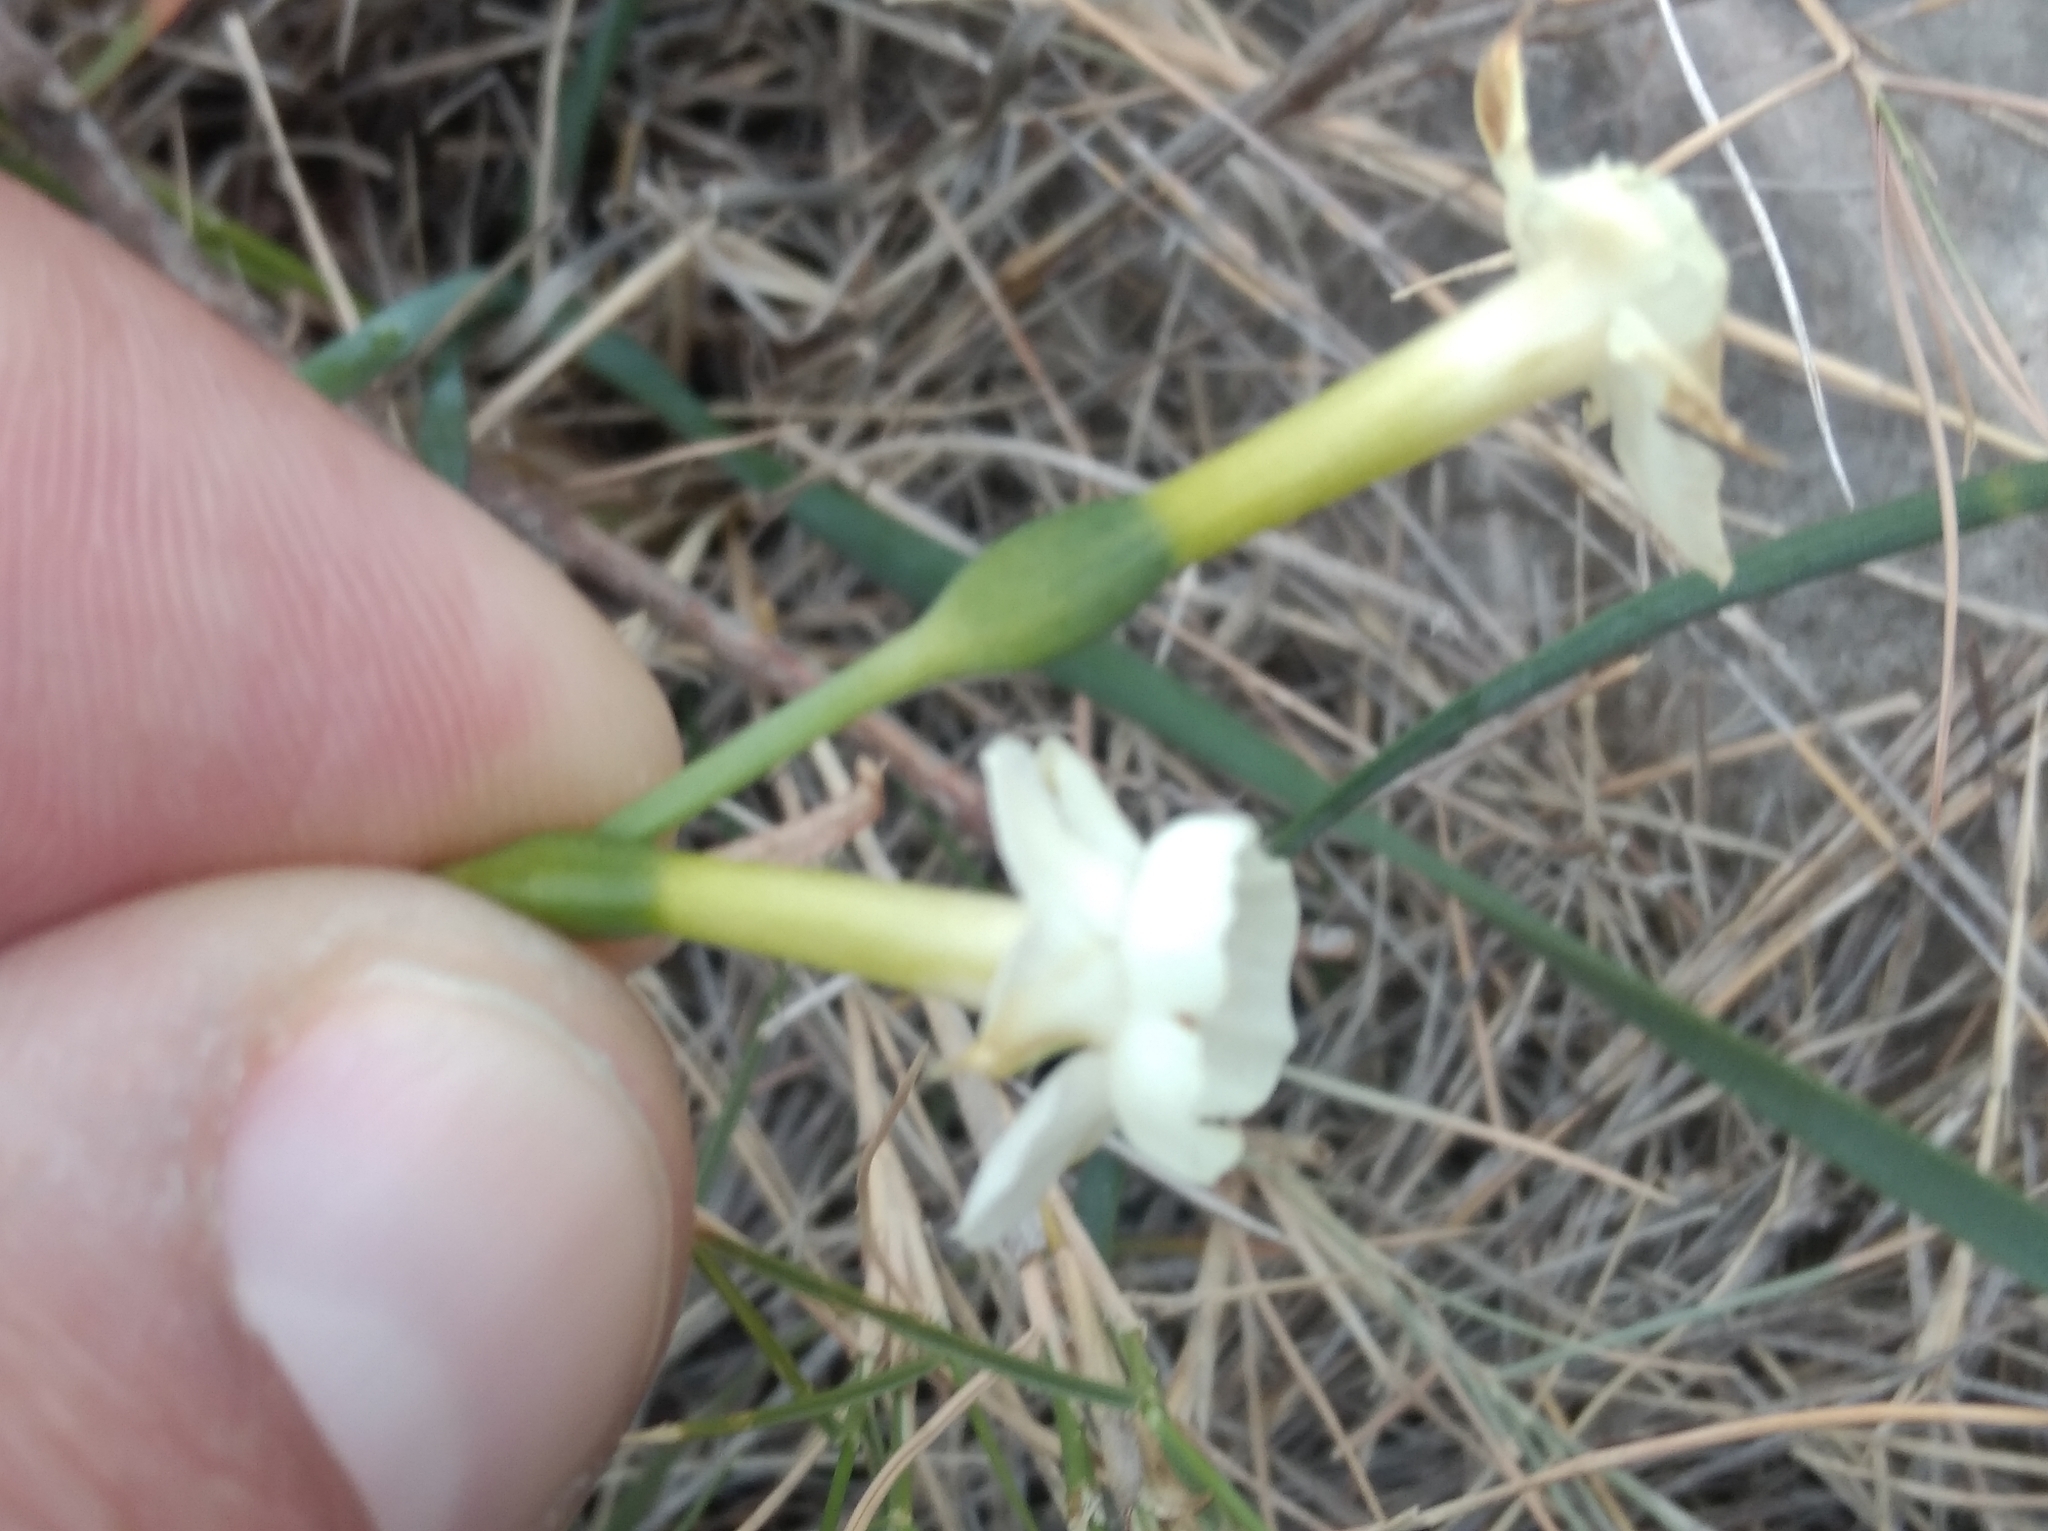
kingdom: Plantae
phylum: Tracheophyta
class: Liliopsida
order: Asparagales
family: Amaryllidaceae
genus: Narcissus
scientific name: Narcissus dubius
